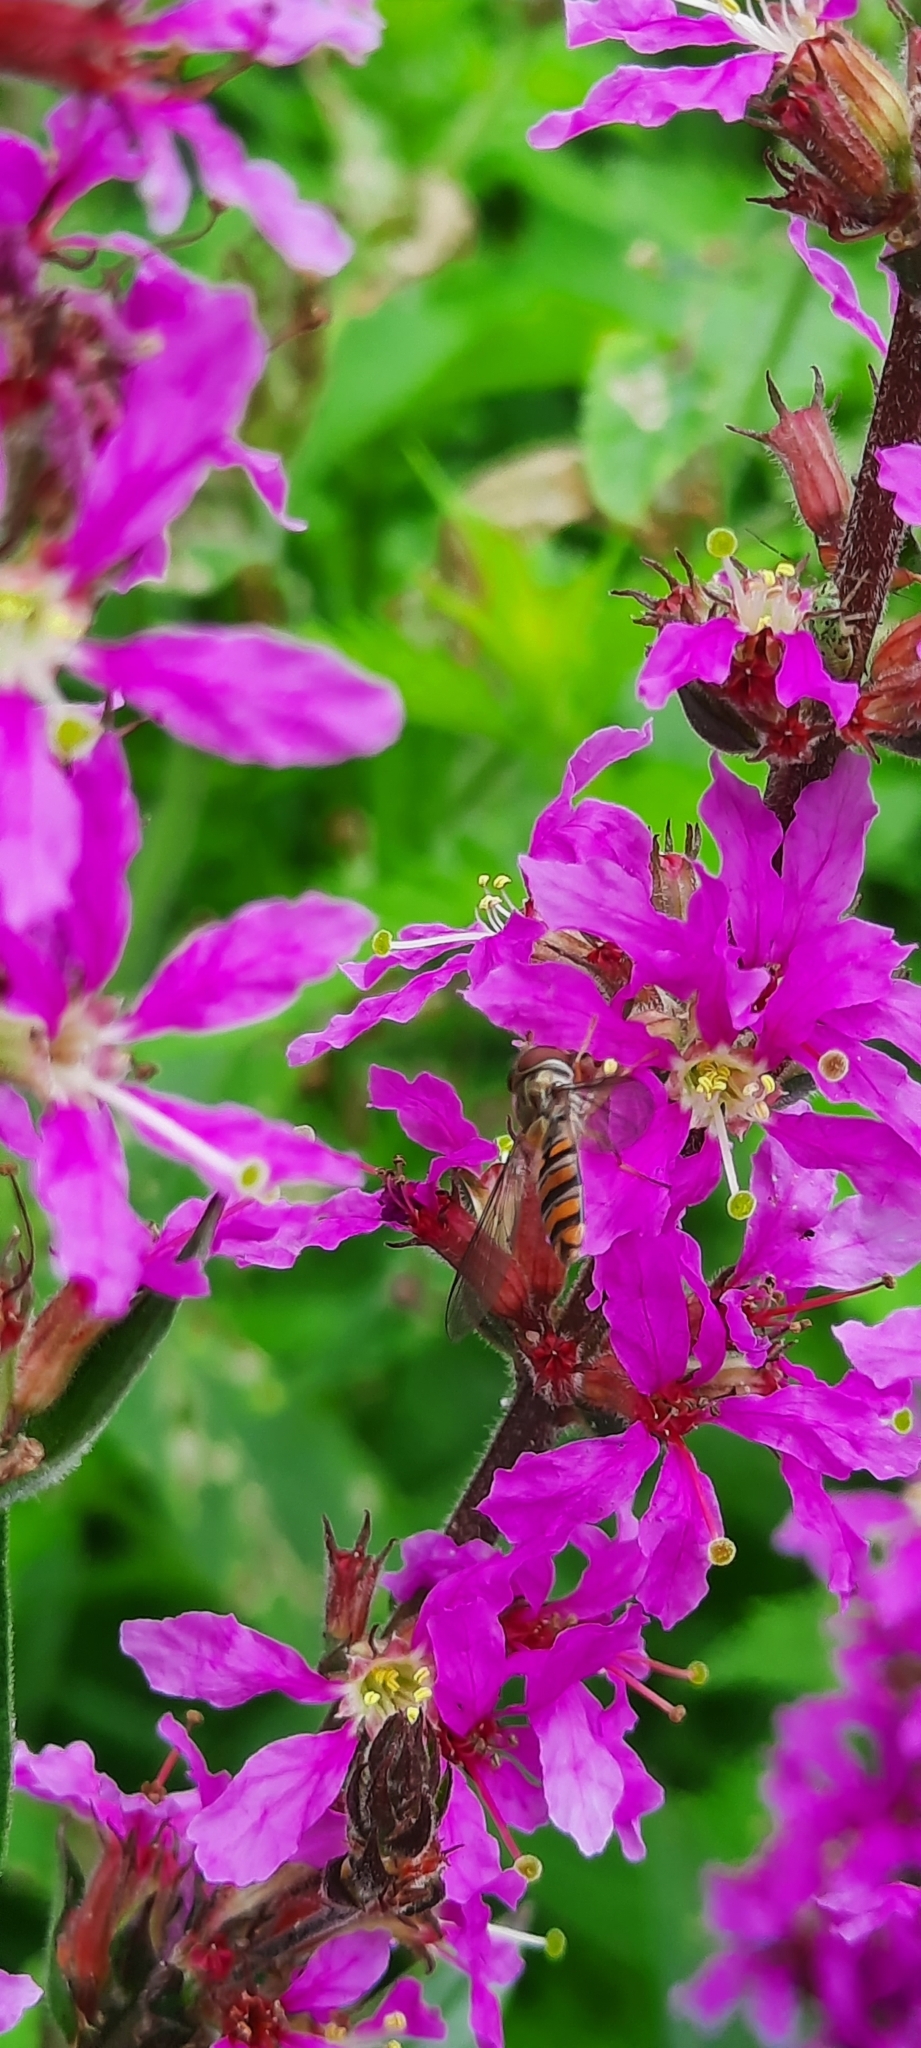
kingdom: Animalia
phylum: Arthropoda
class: Insecta
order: Diptera
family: Syrphidae
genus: Episyrphus
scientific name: Episyrphus balteatus
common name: Marmalade hoverfly
